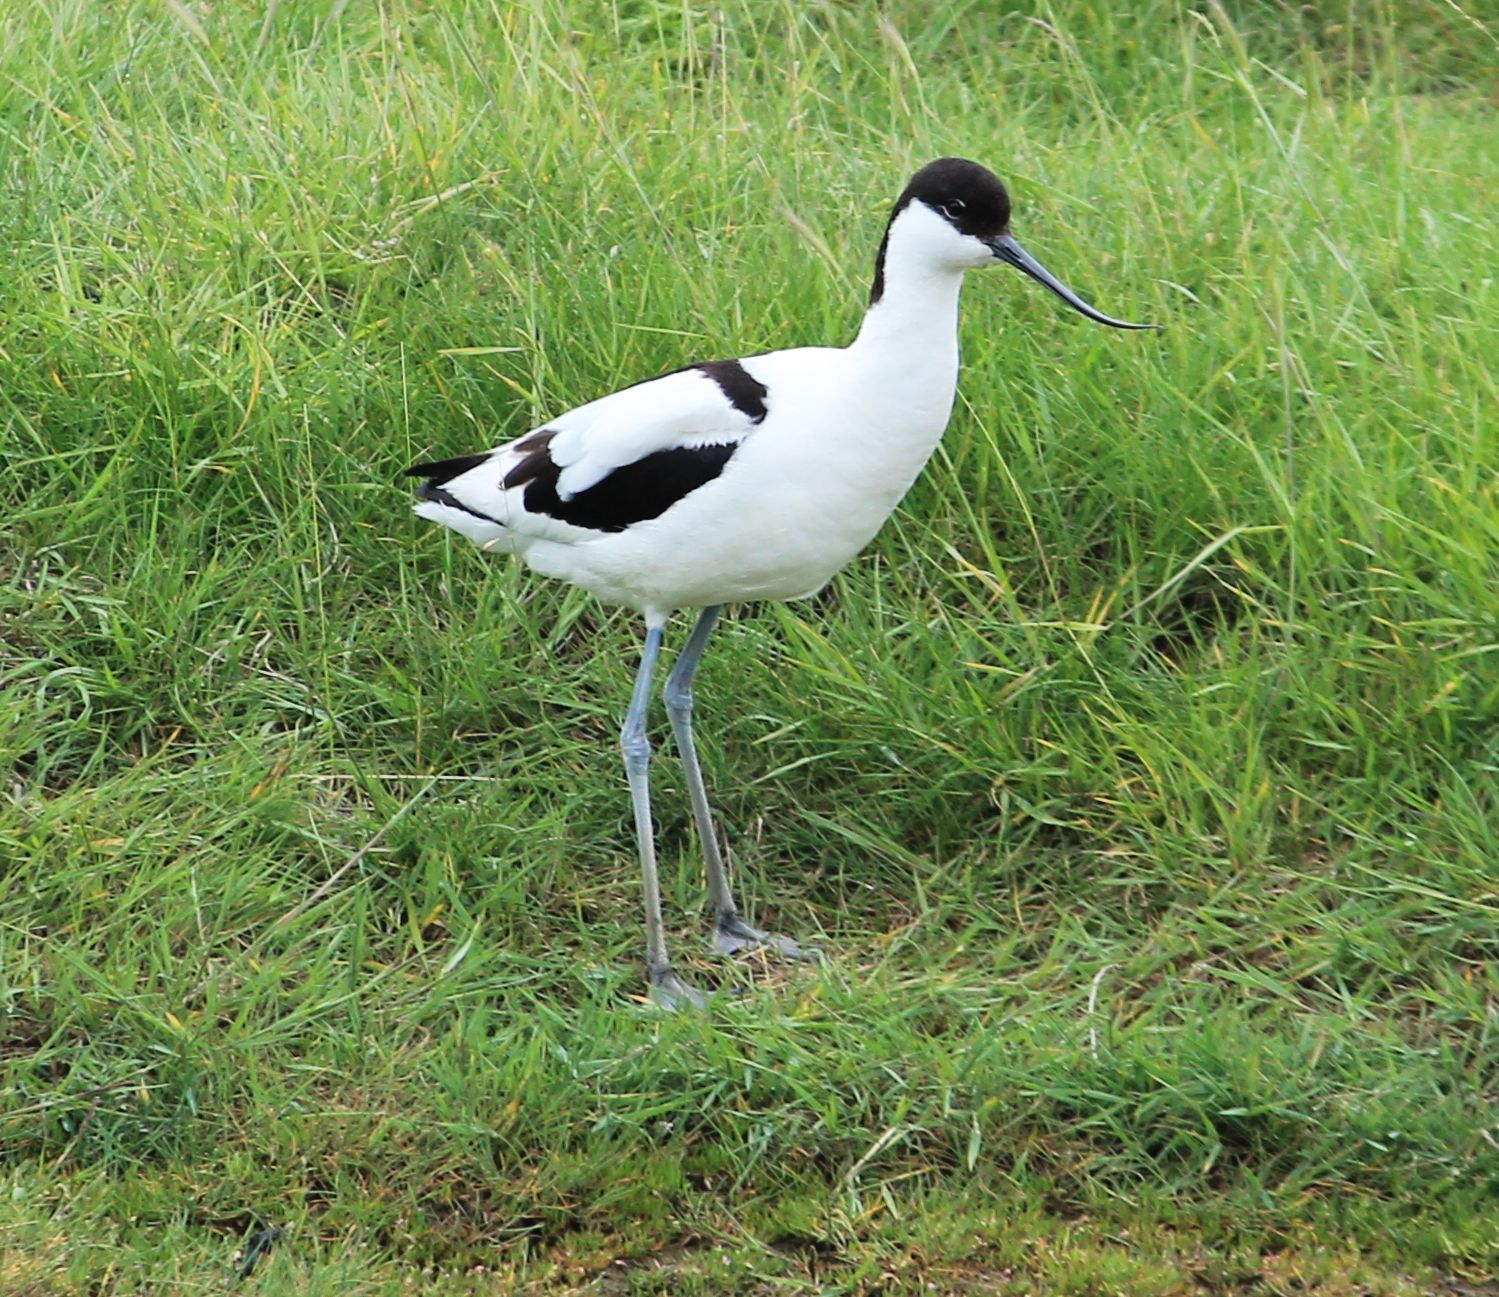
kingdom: Animalia
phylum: Chordata
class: Aves
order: Charadriiformes
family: Recurvirostridae
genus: Recurvirostra
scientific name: Recurvirostra avosetta
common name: Pied avocet
